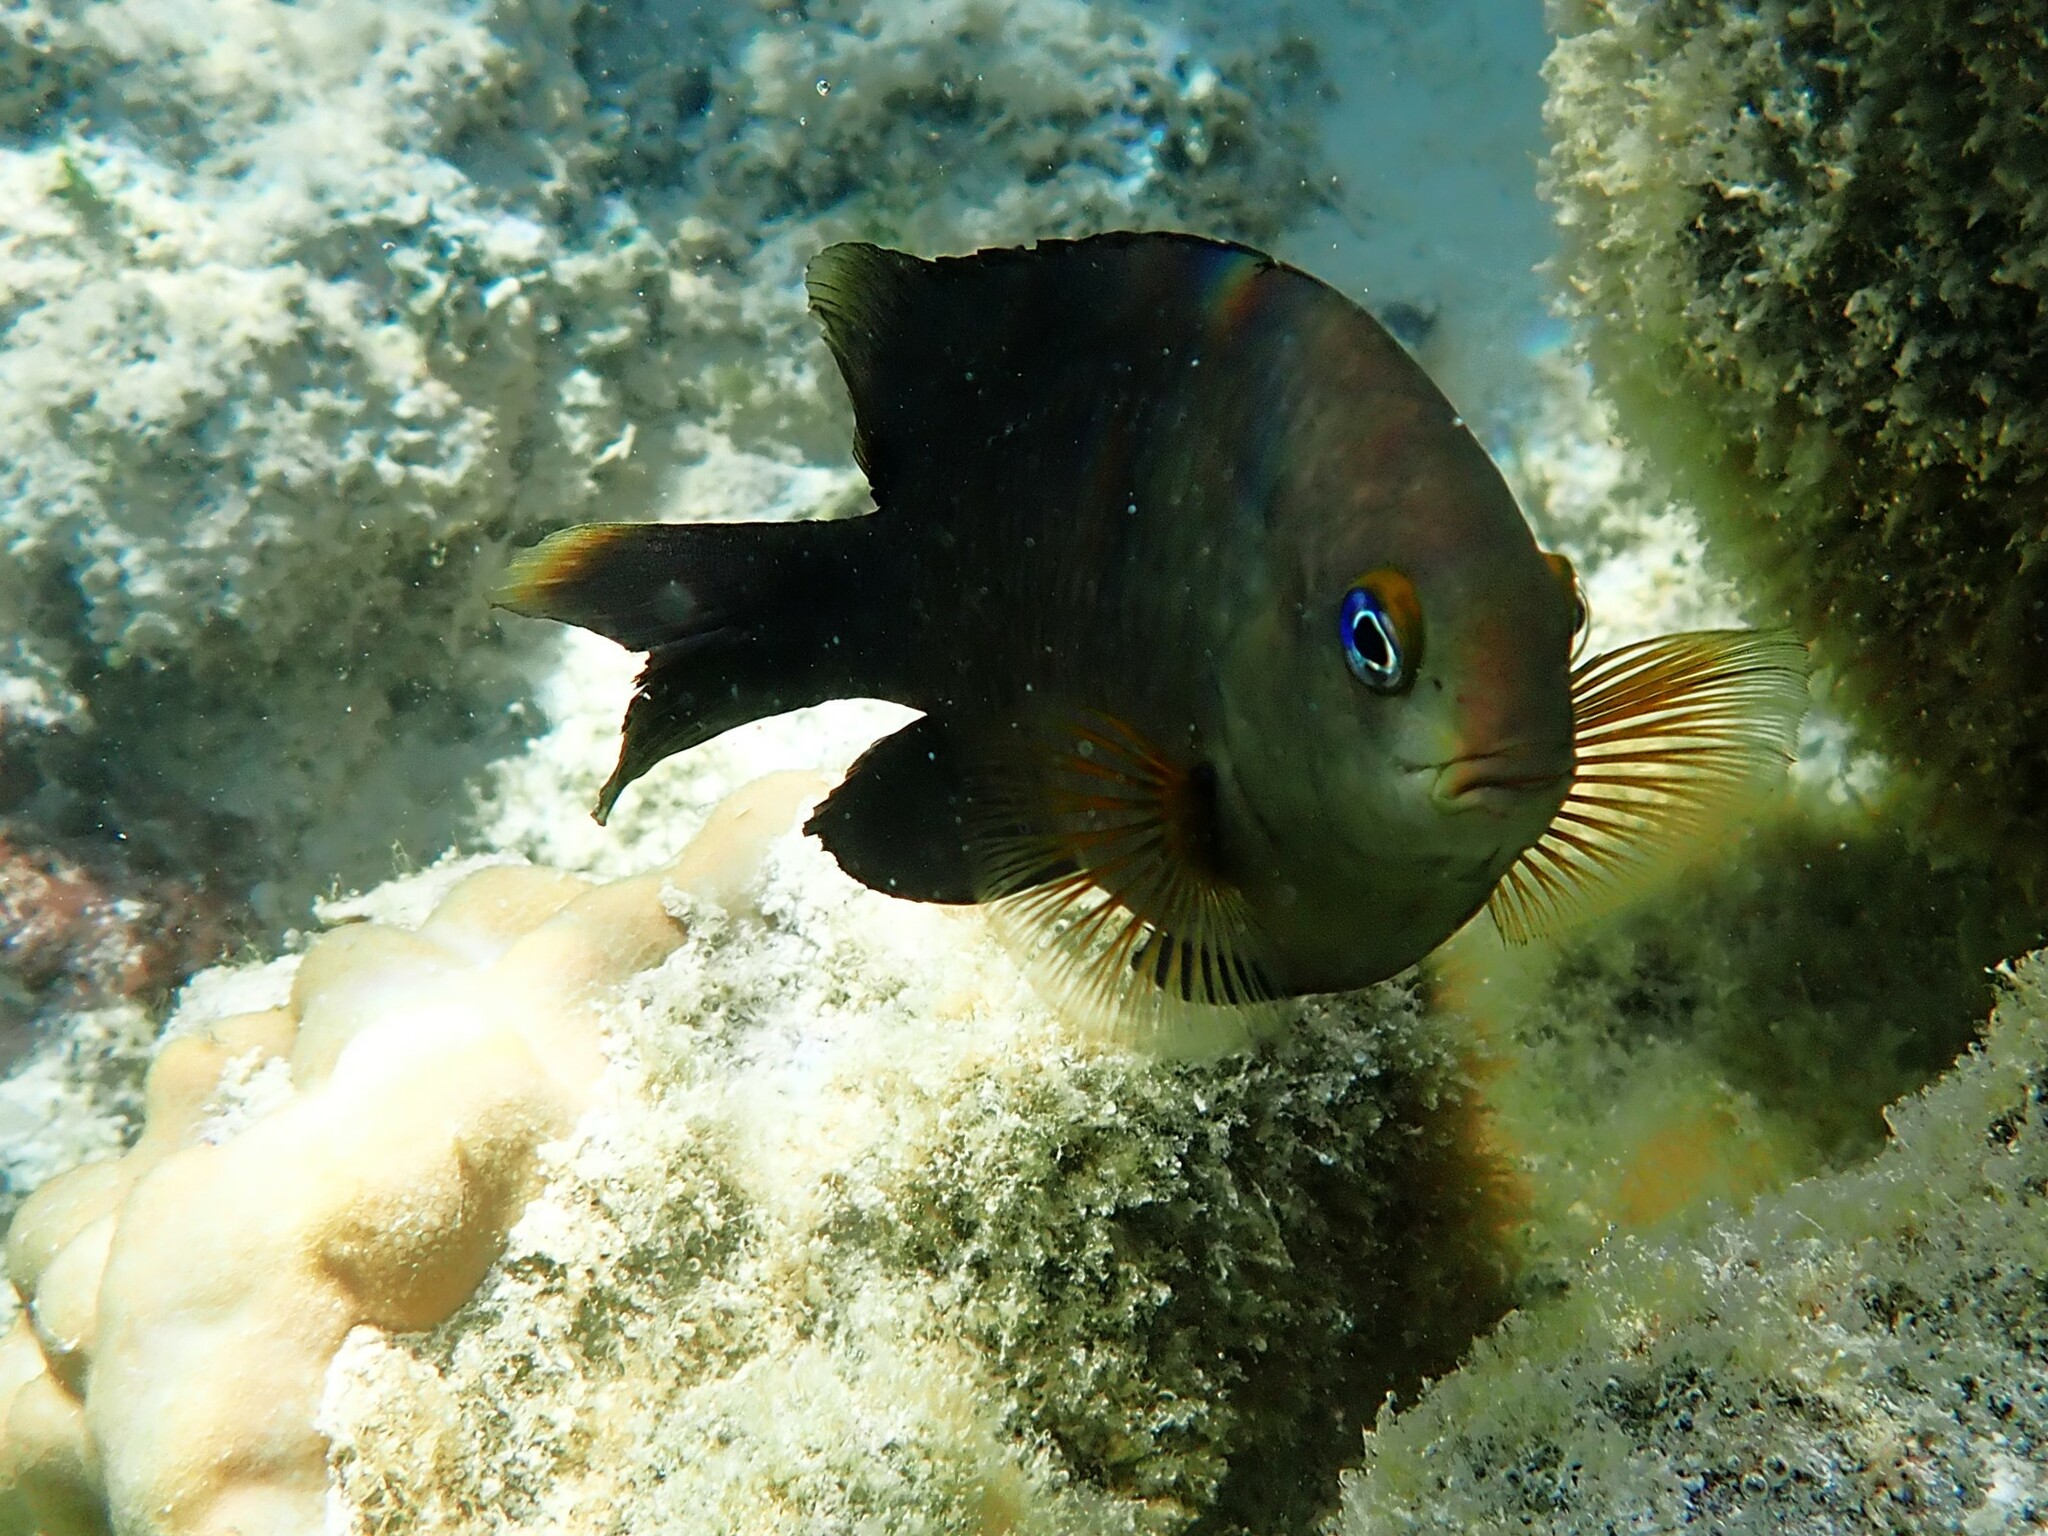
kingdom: Animalia
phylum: Chordata
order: Perciformes
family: Pomacentridae
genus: Stegastes
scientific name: Stegastes nigricans
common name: Dusky gregory
